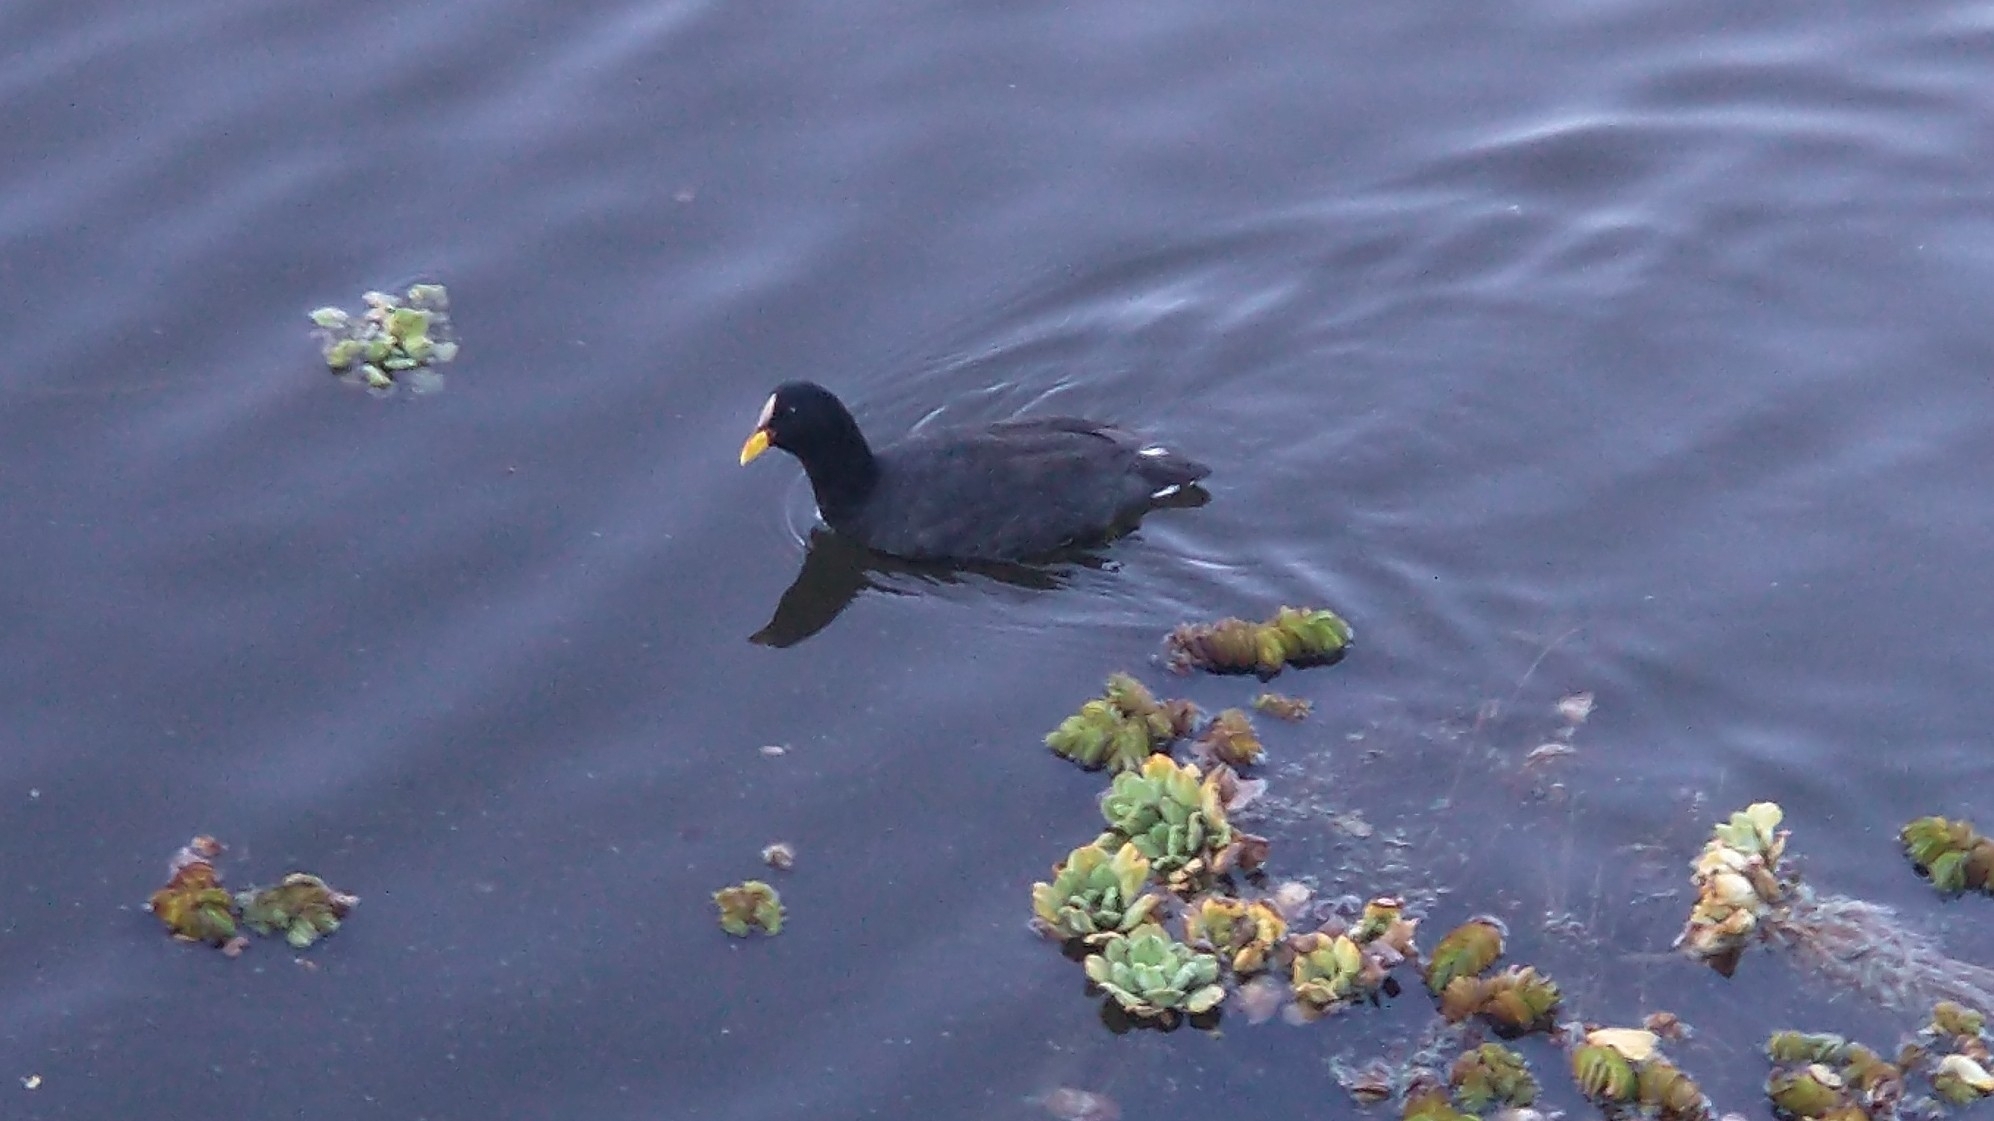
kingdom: Animalia
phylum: Chordata
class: Aves
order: Gruiformes
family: Rallidae
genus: Fulica
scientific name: Fulica rufifrons
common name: Red-fronted coot
